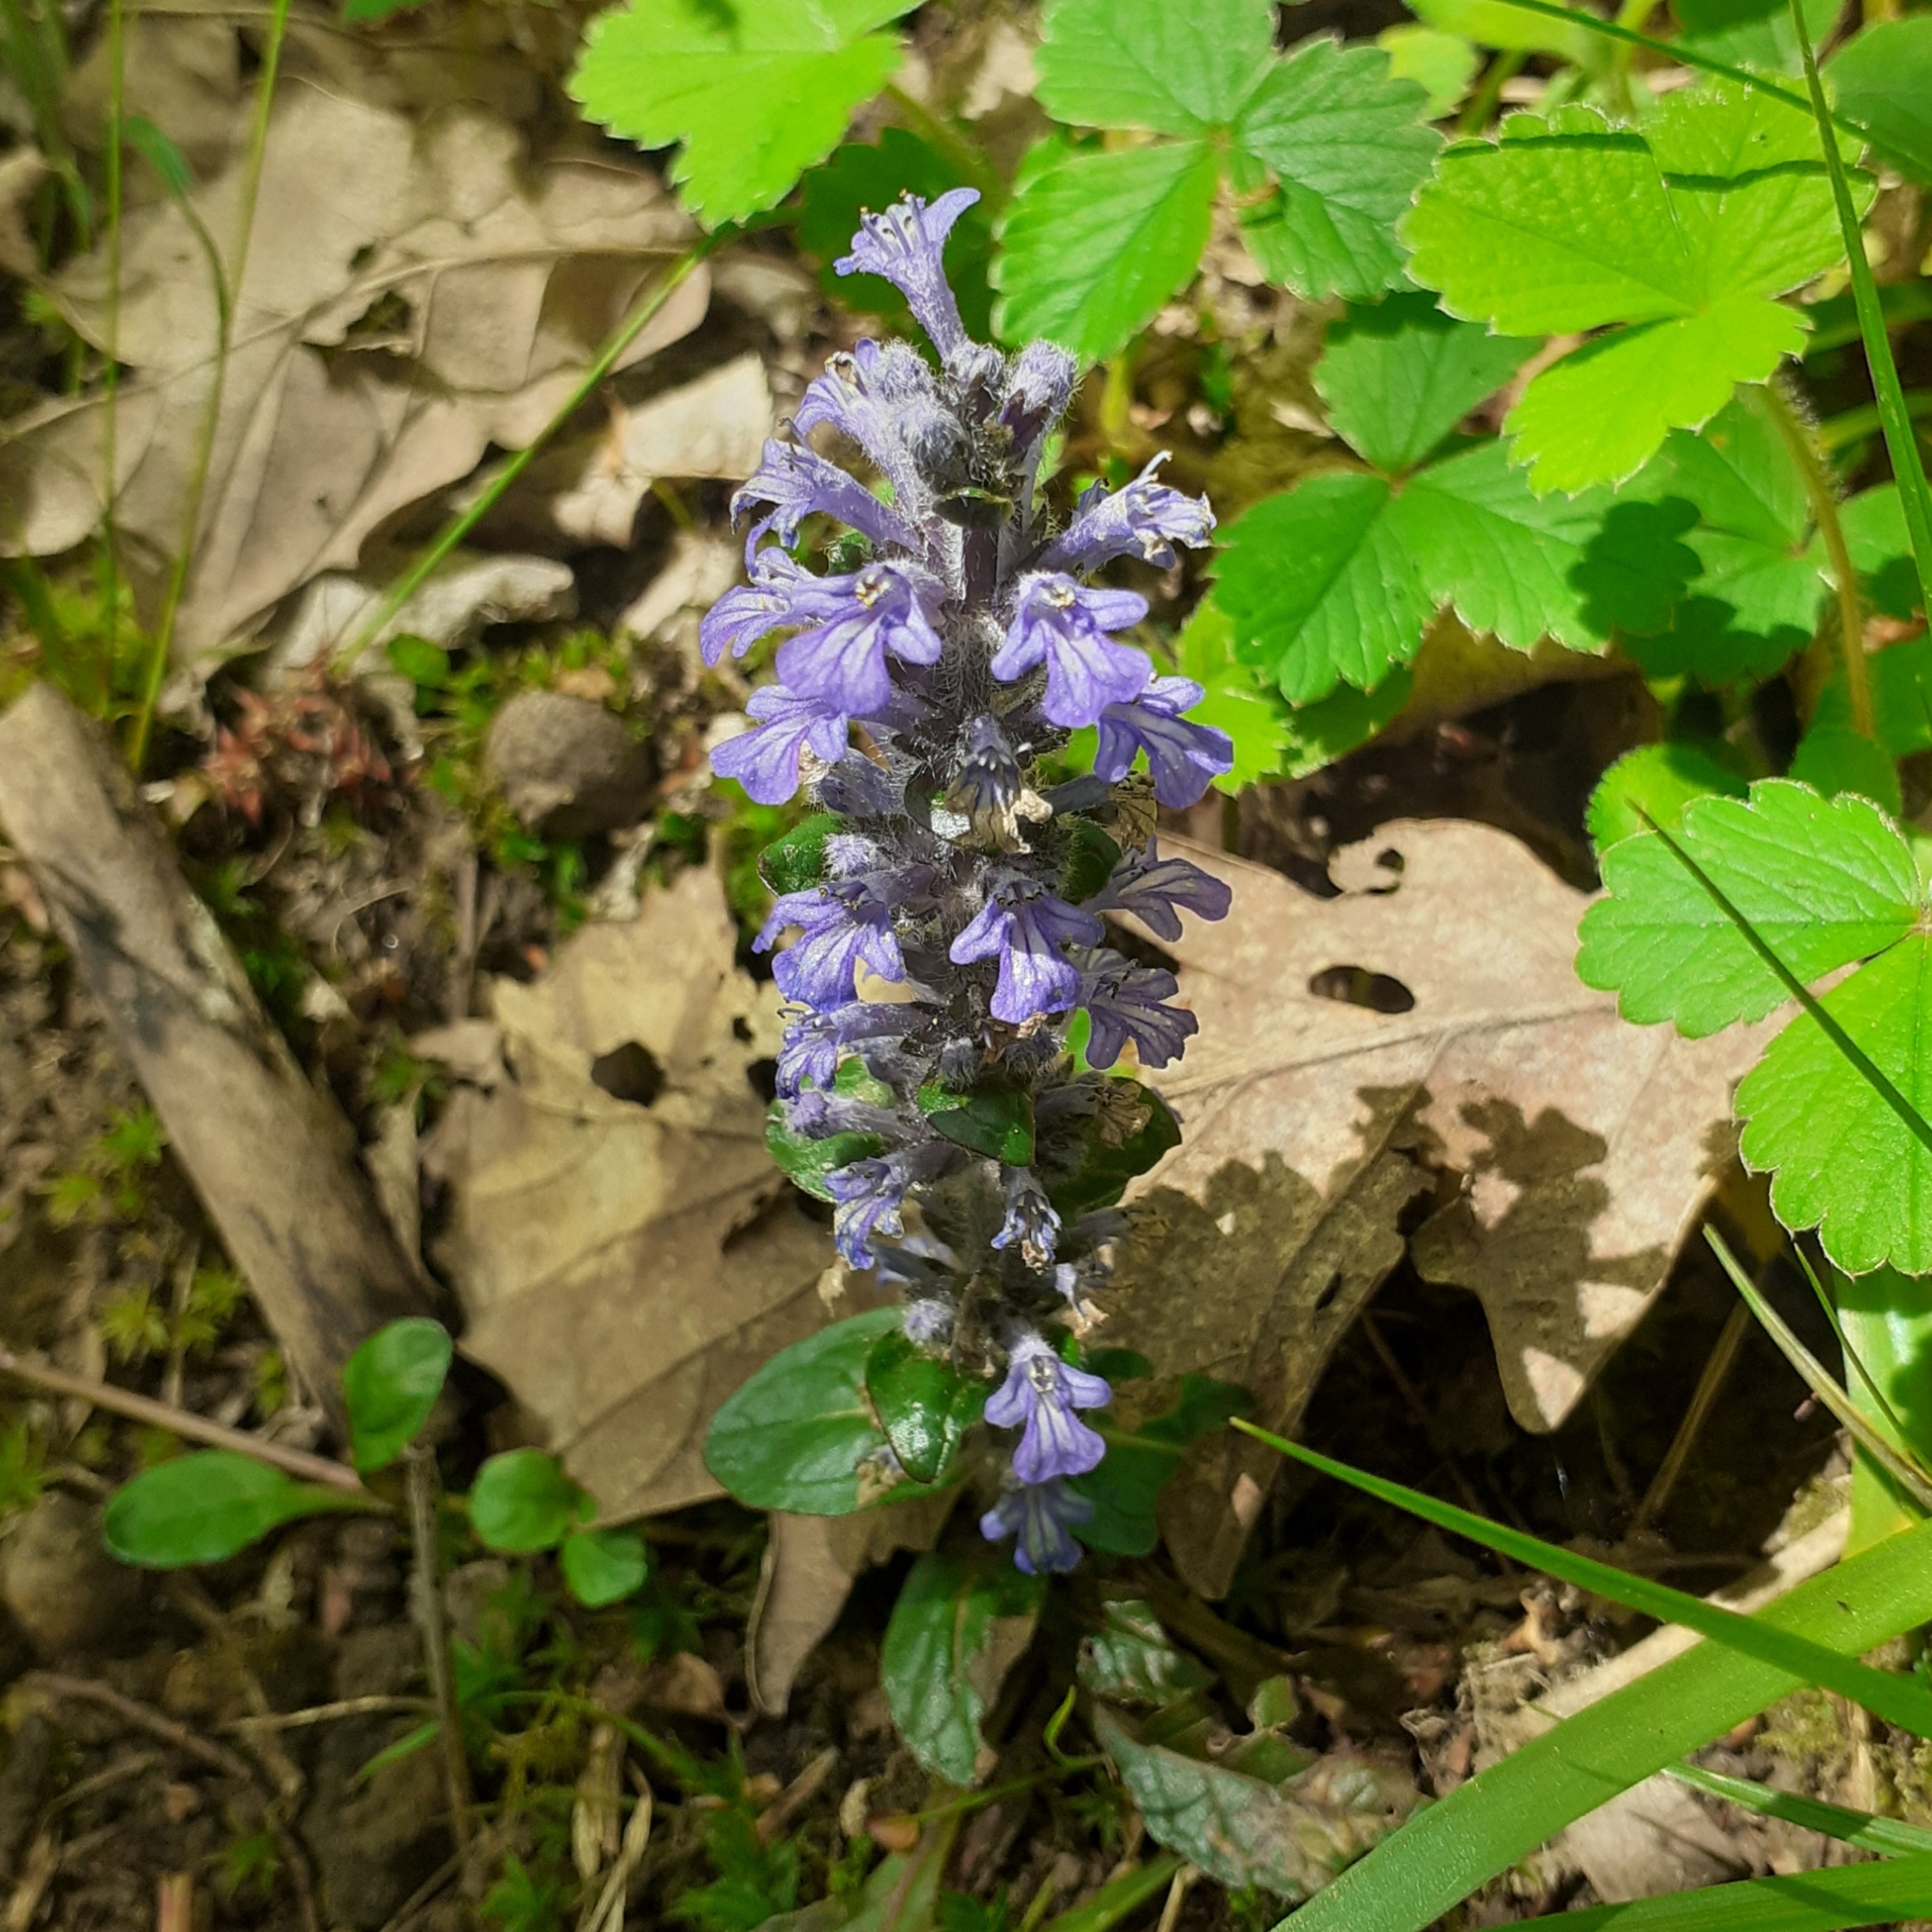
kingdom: Plantae
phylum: Tracheophyta
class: Magnoliopsida
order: Lamiales
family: Lamiaceae
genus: Ajuga
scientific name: Ajuga reptans
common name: Bugle
